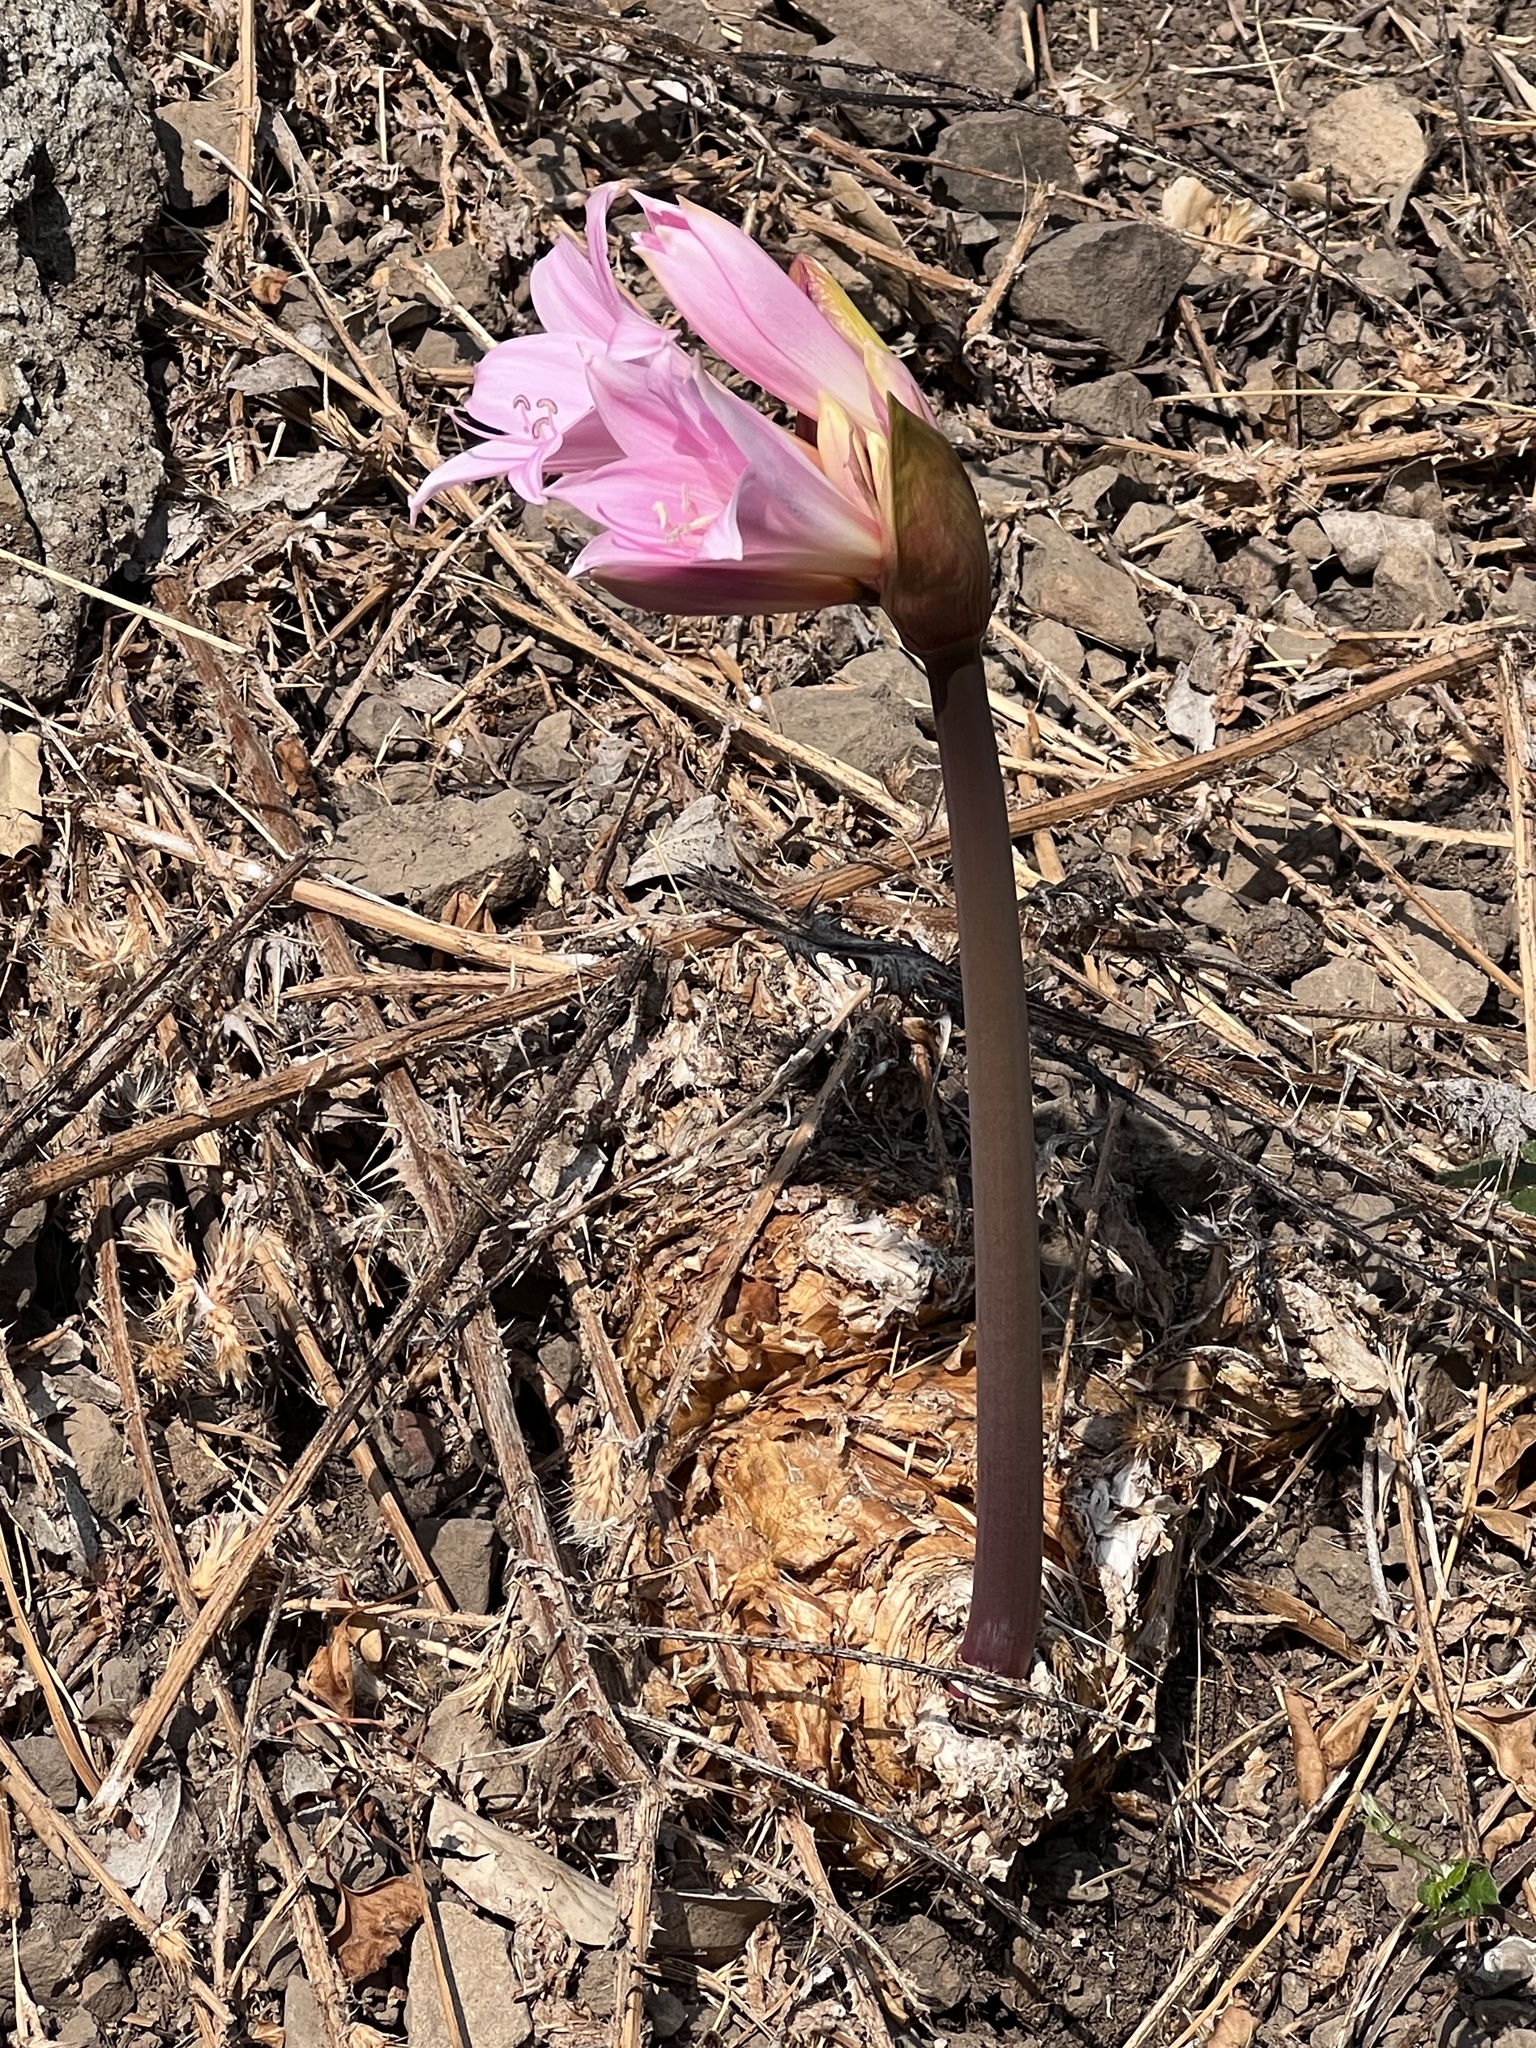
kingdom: Plantae
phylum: Tracheophyta
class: Liliopsida
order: Asparagales
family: Amaryllidaceae
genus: Amaryllis
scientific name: Amaryllis belladonna
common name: Jersey lily
